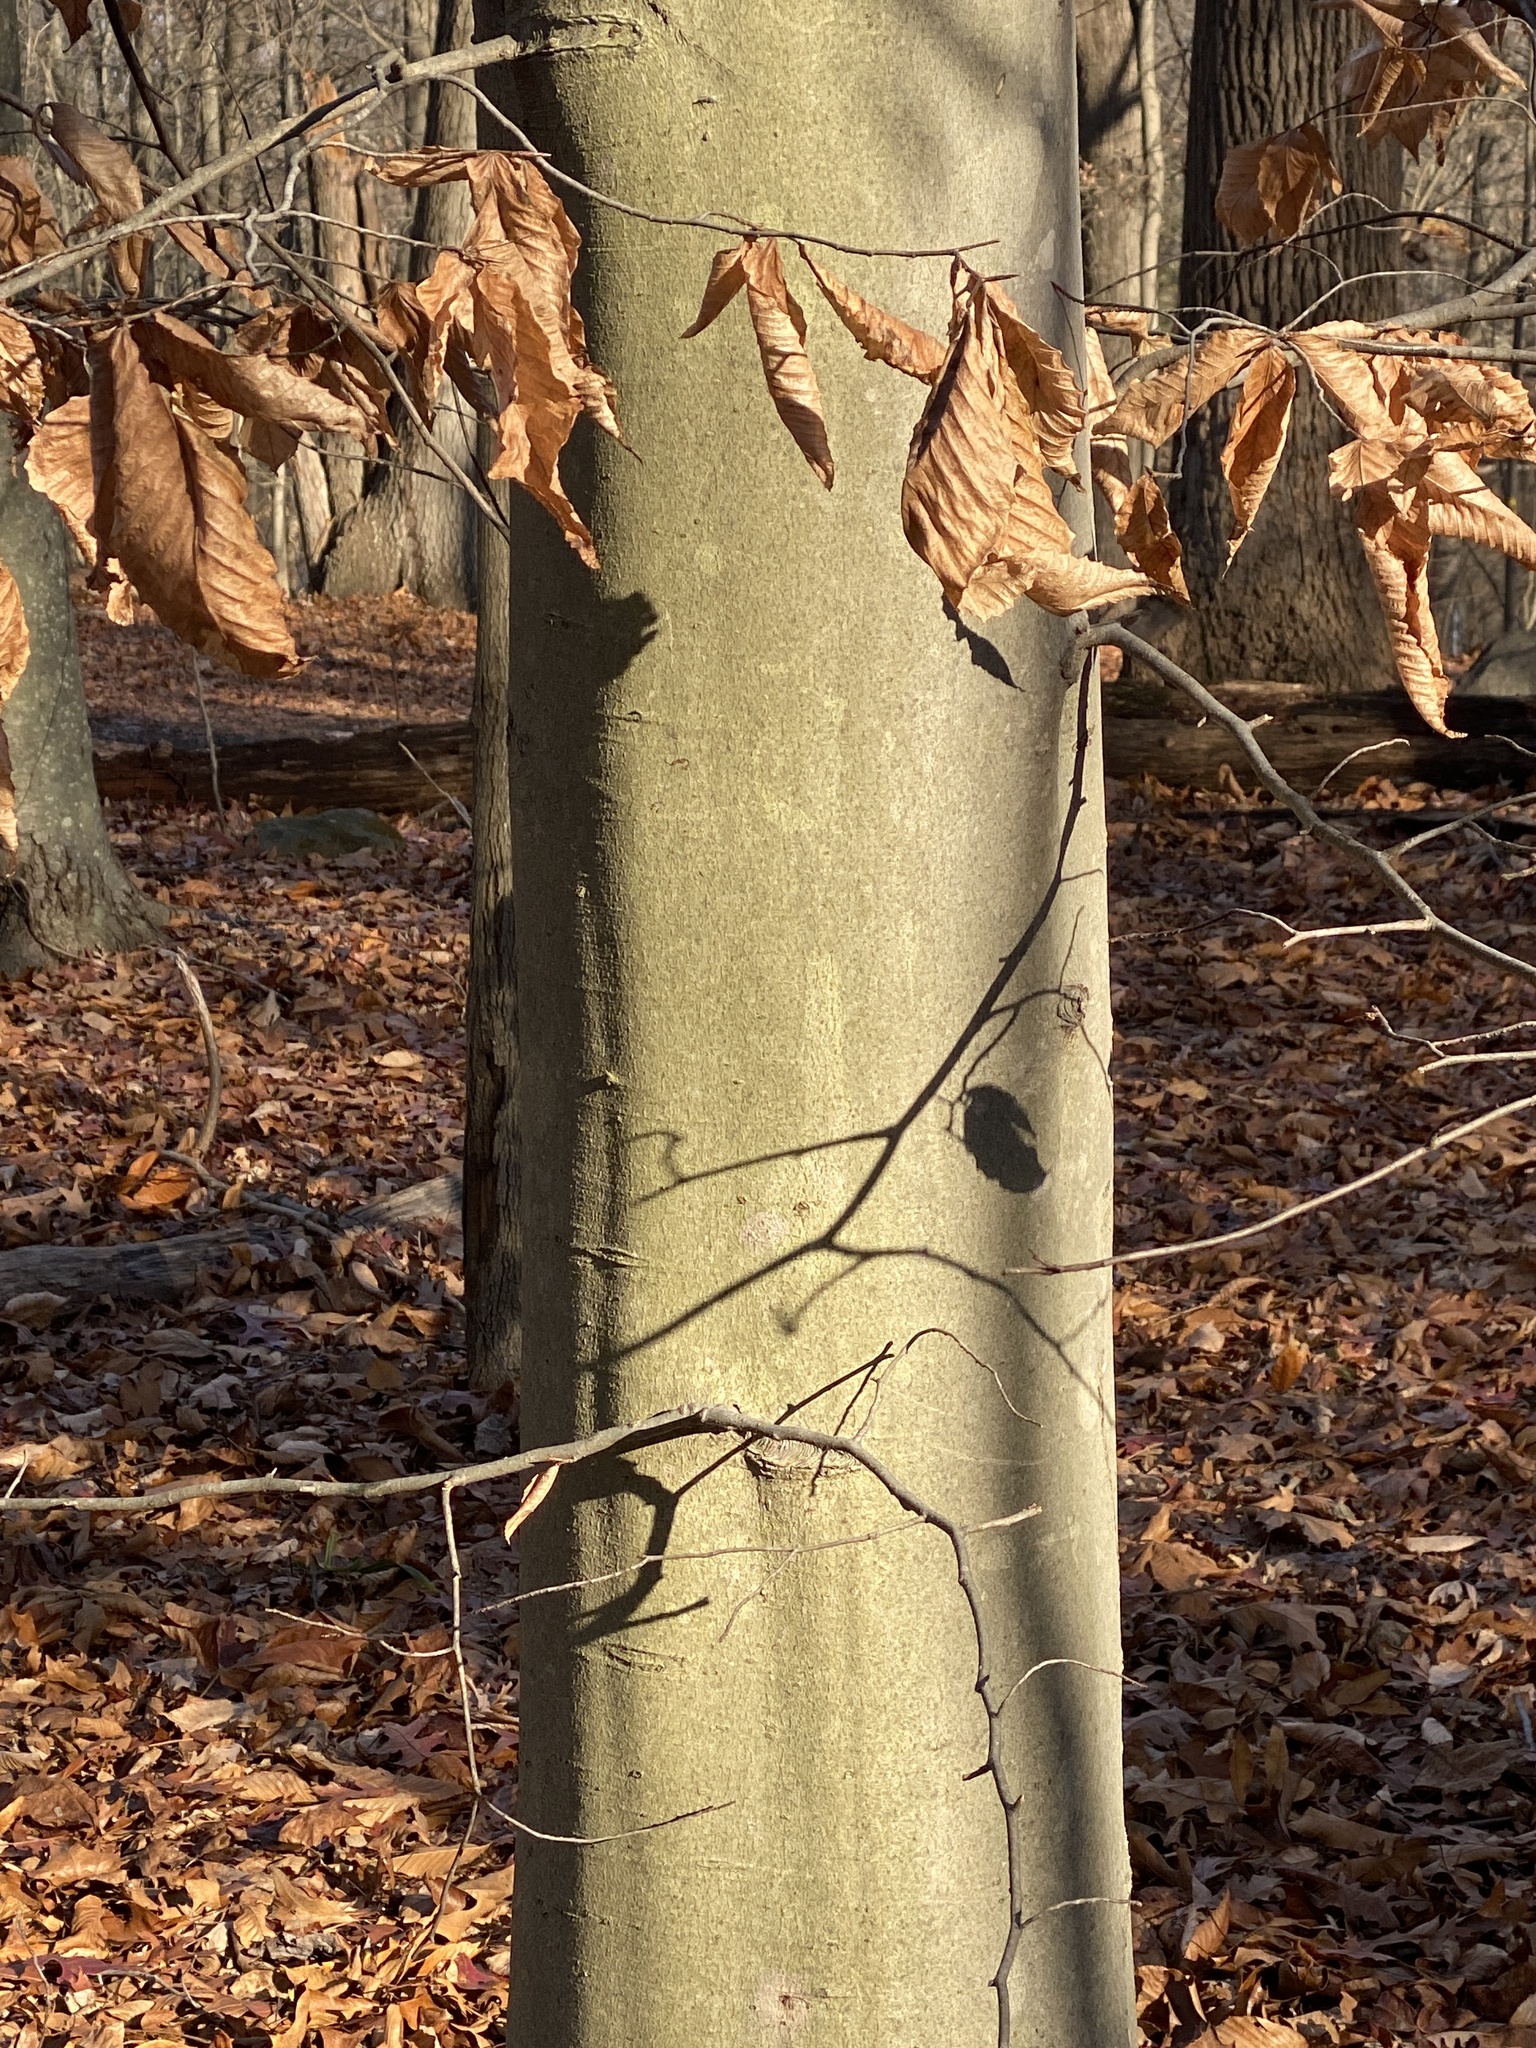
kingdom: Plantae
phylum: Tracheophyta
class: Magnoliopsida
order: Fagales
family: Fagaceae
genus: Fagus
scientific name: Fagus grandifolia
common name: American beech
